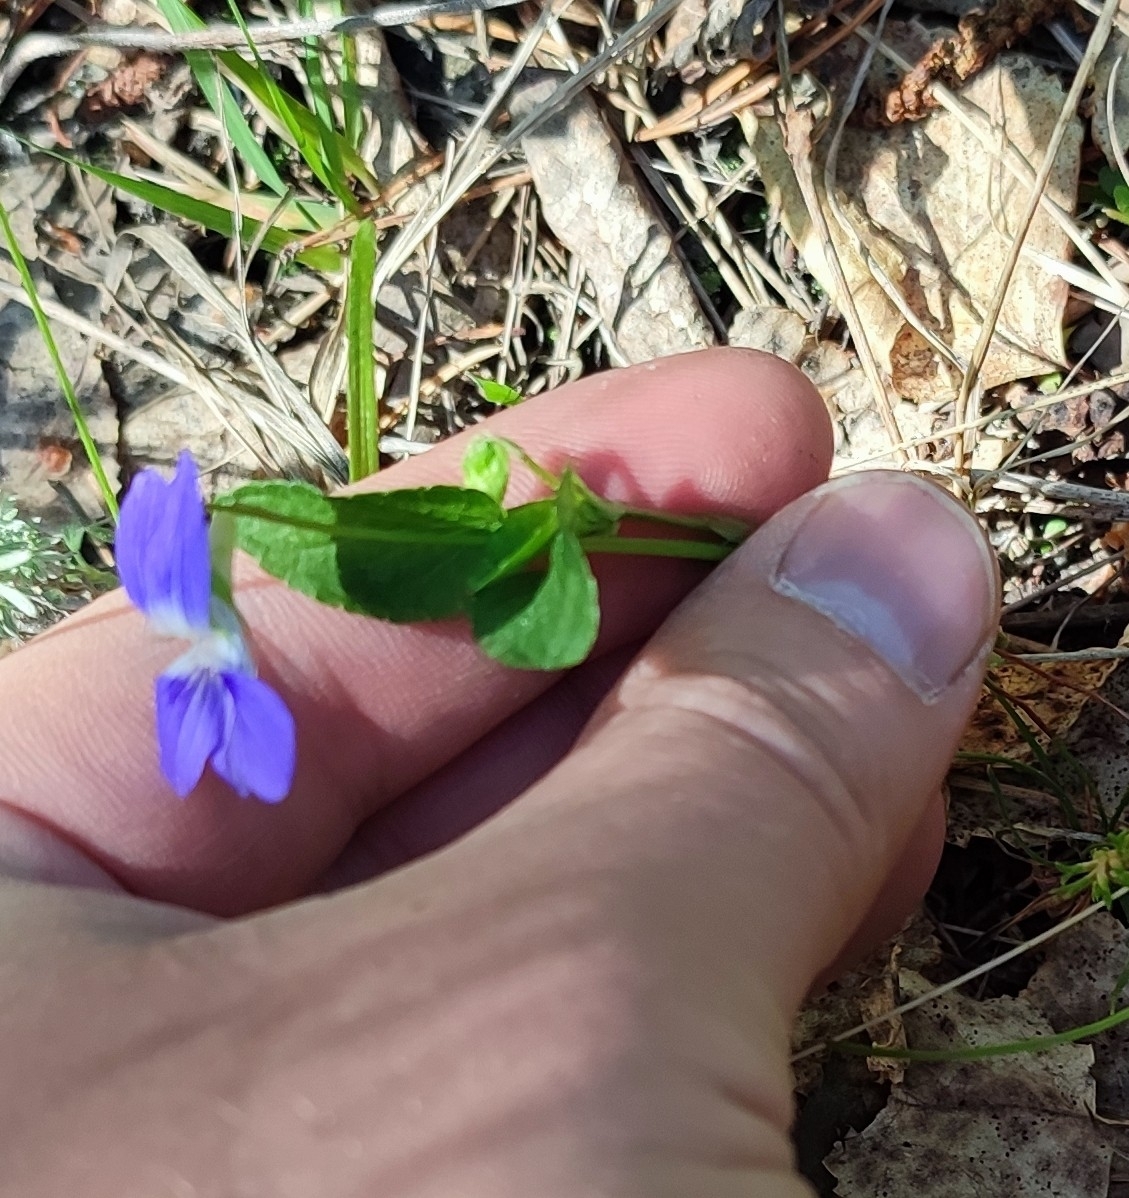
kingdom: Plantae
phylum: Tracheophyta
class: Magnoliopsida
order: Malpighiales
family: Violaceae
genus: Viola
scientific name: Viola
